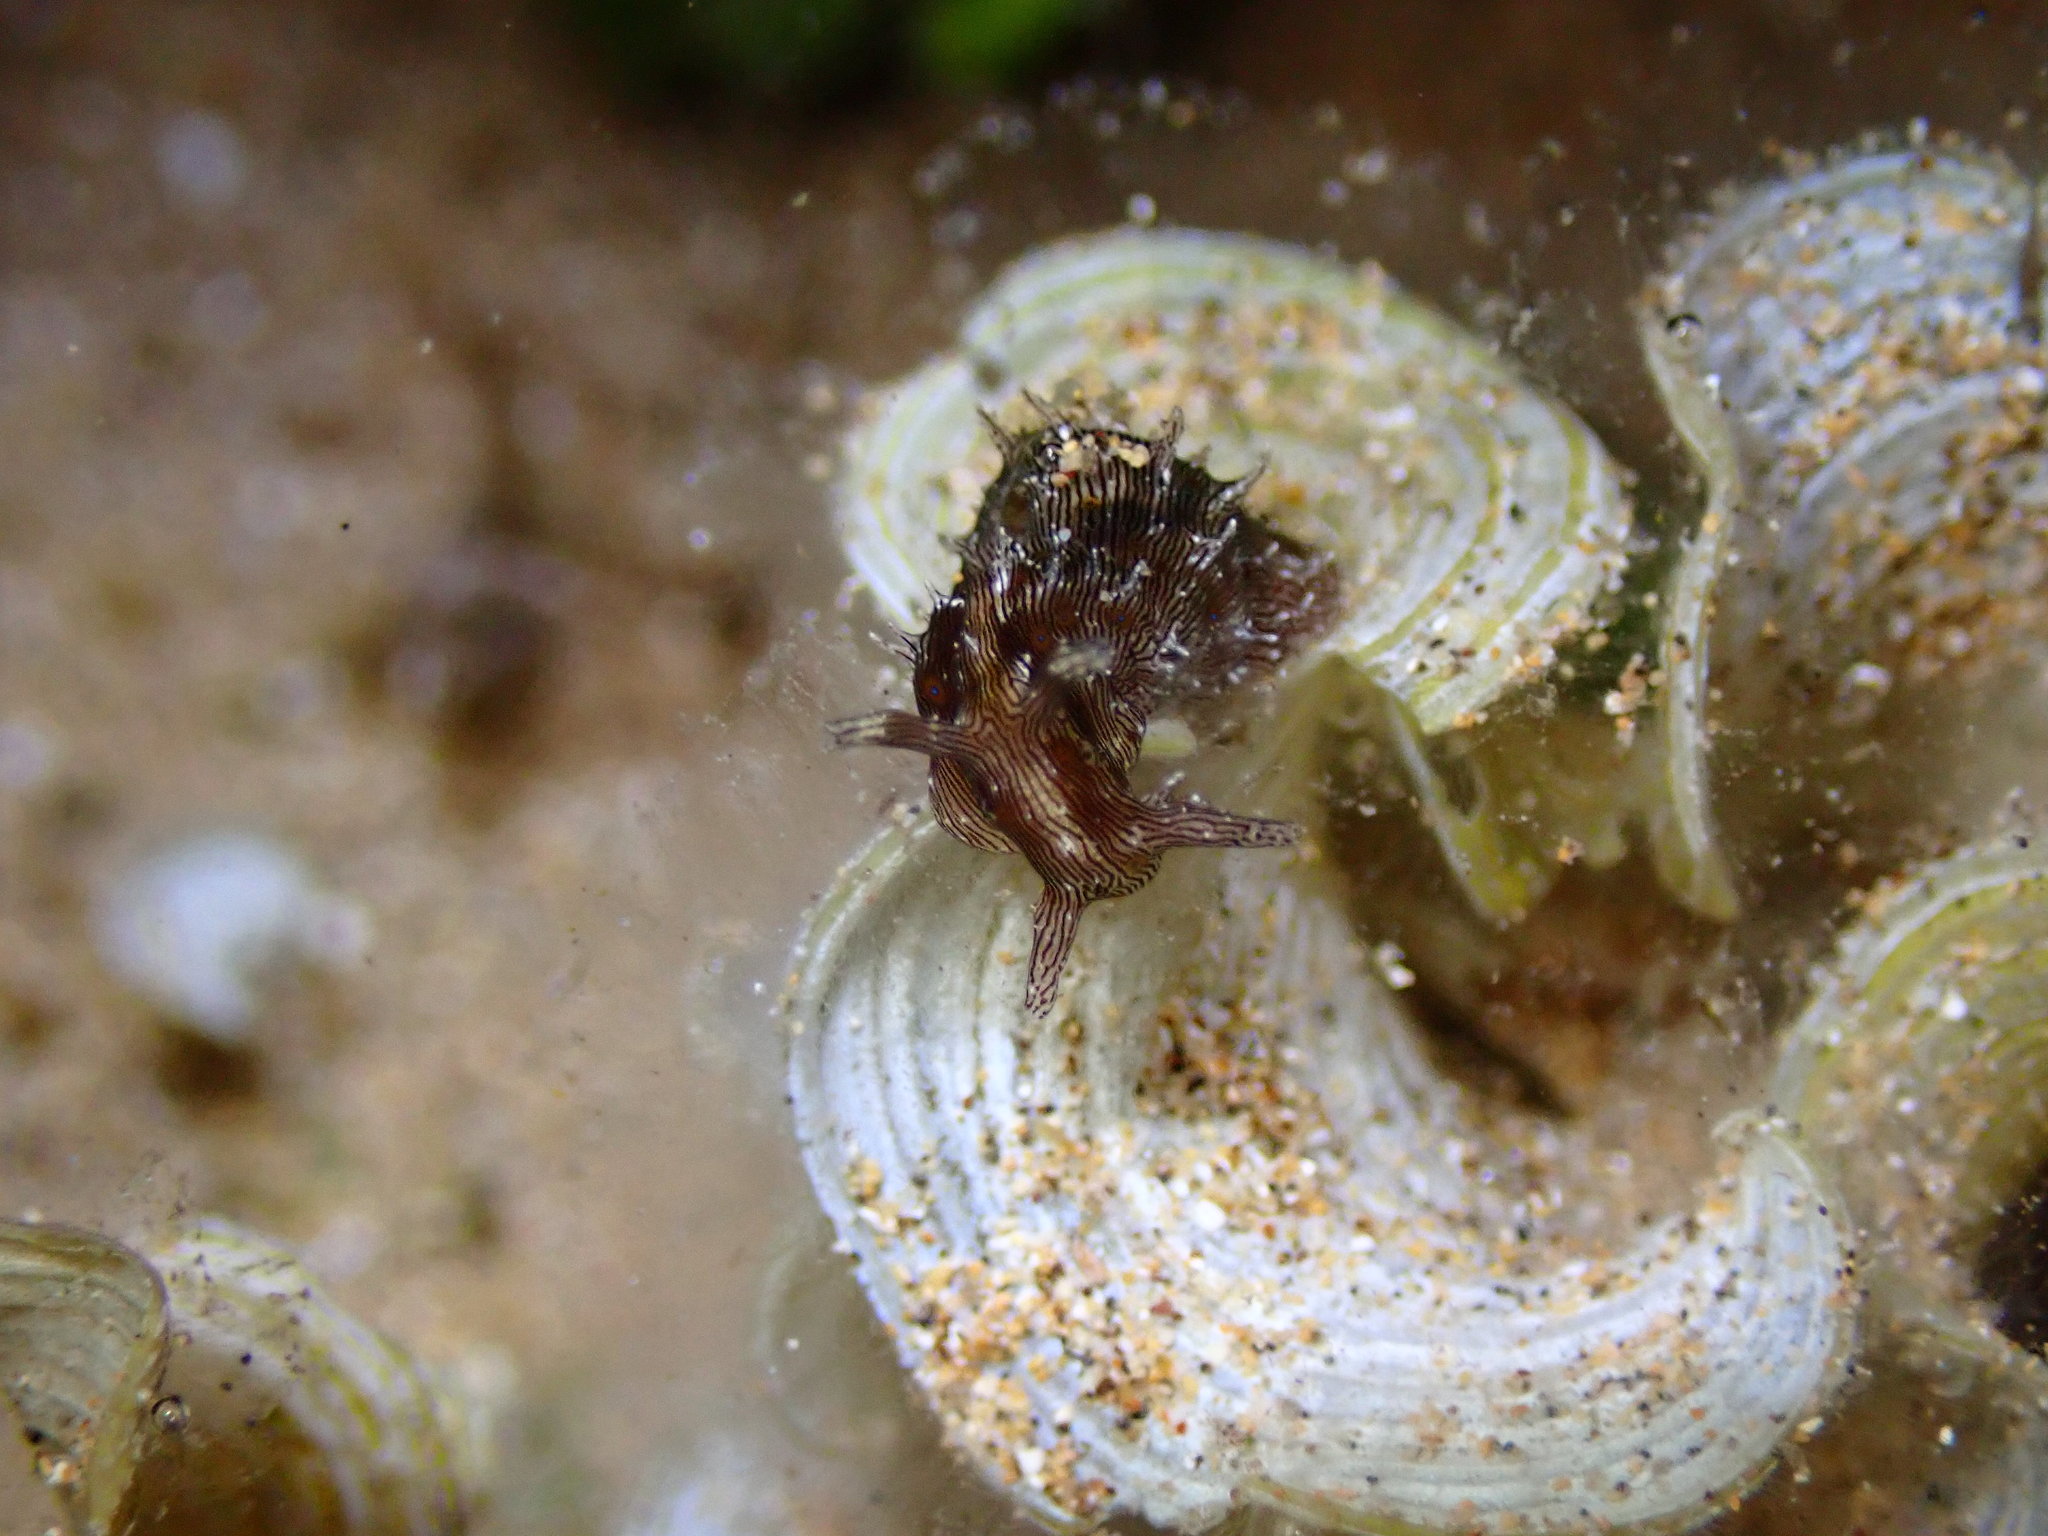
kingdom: Animalia
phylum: Mollusca
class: Gastropoda
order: Aplysiida
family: Aplysiidae
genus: Stylocheilus
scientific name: Stylocheilus striatus
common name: Striated seahare
